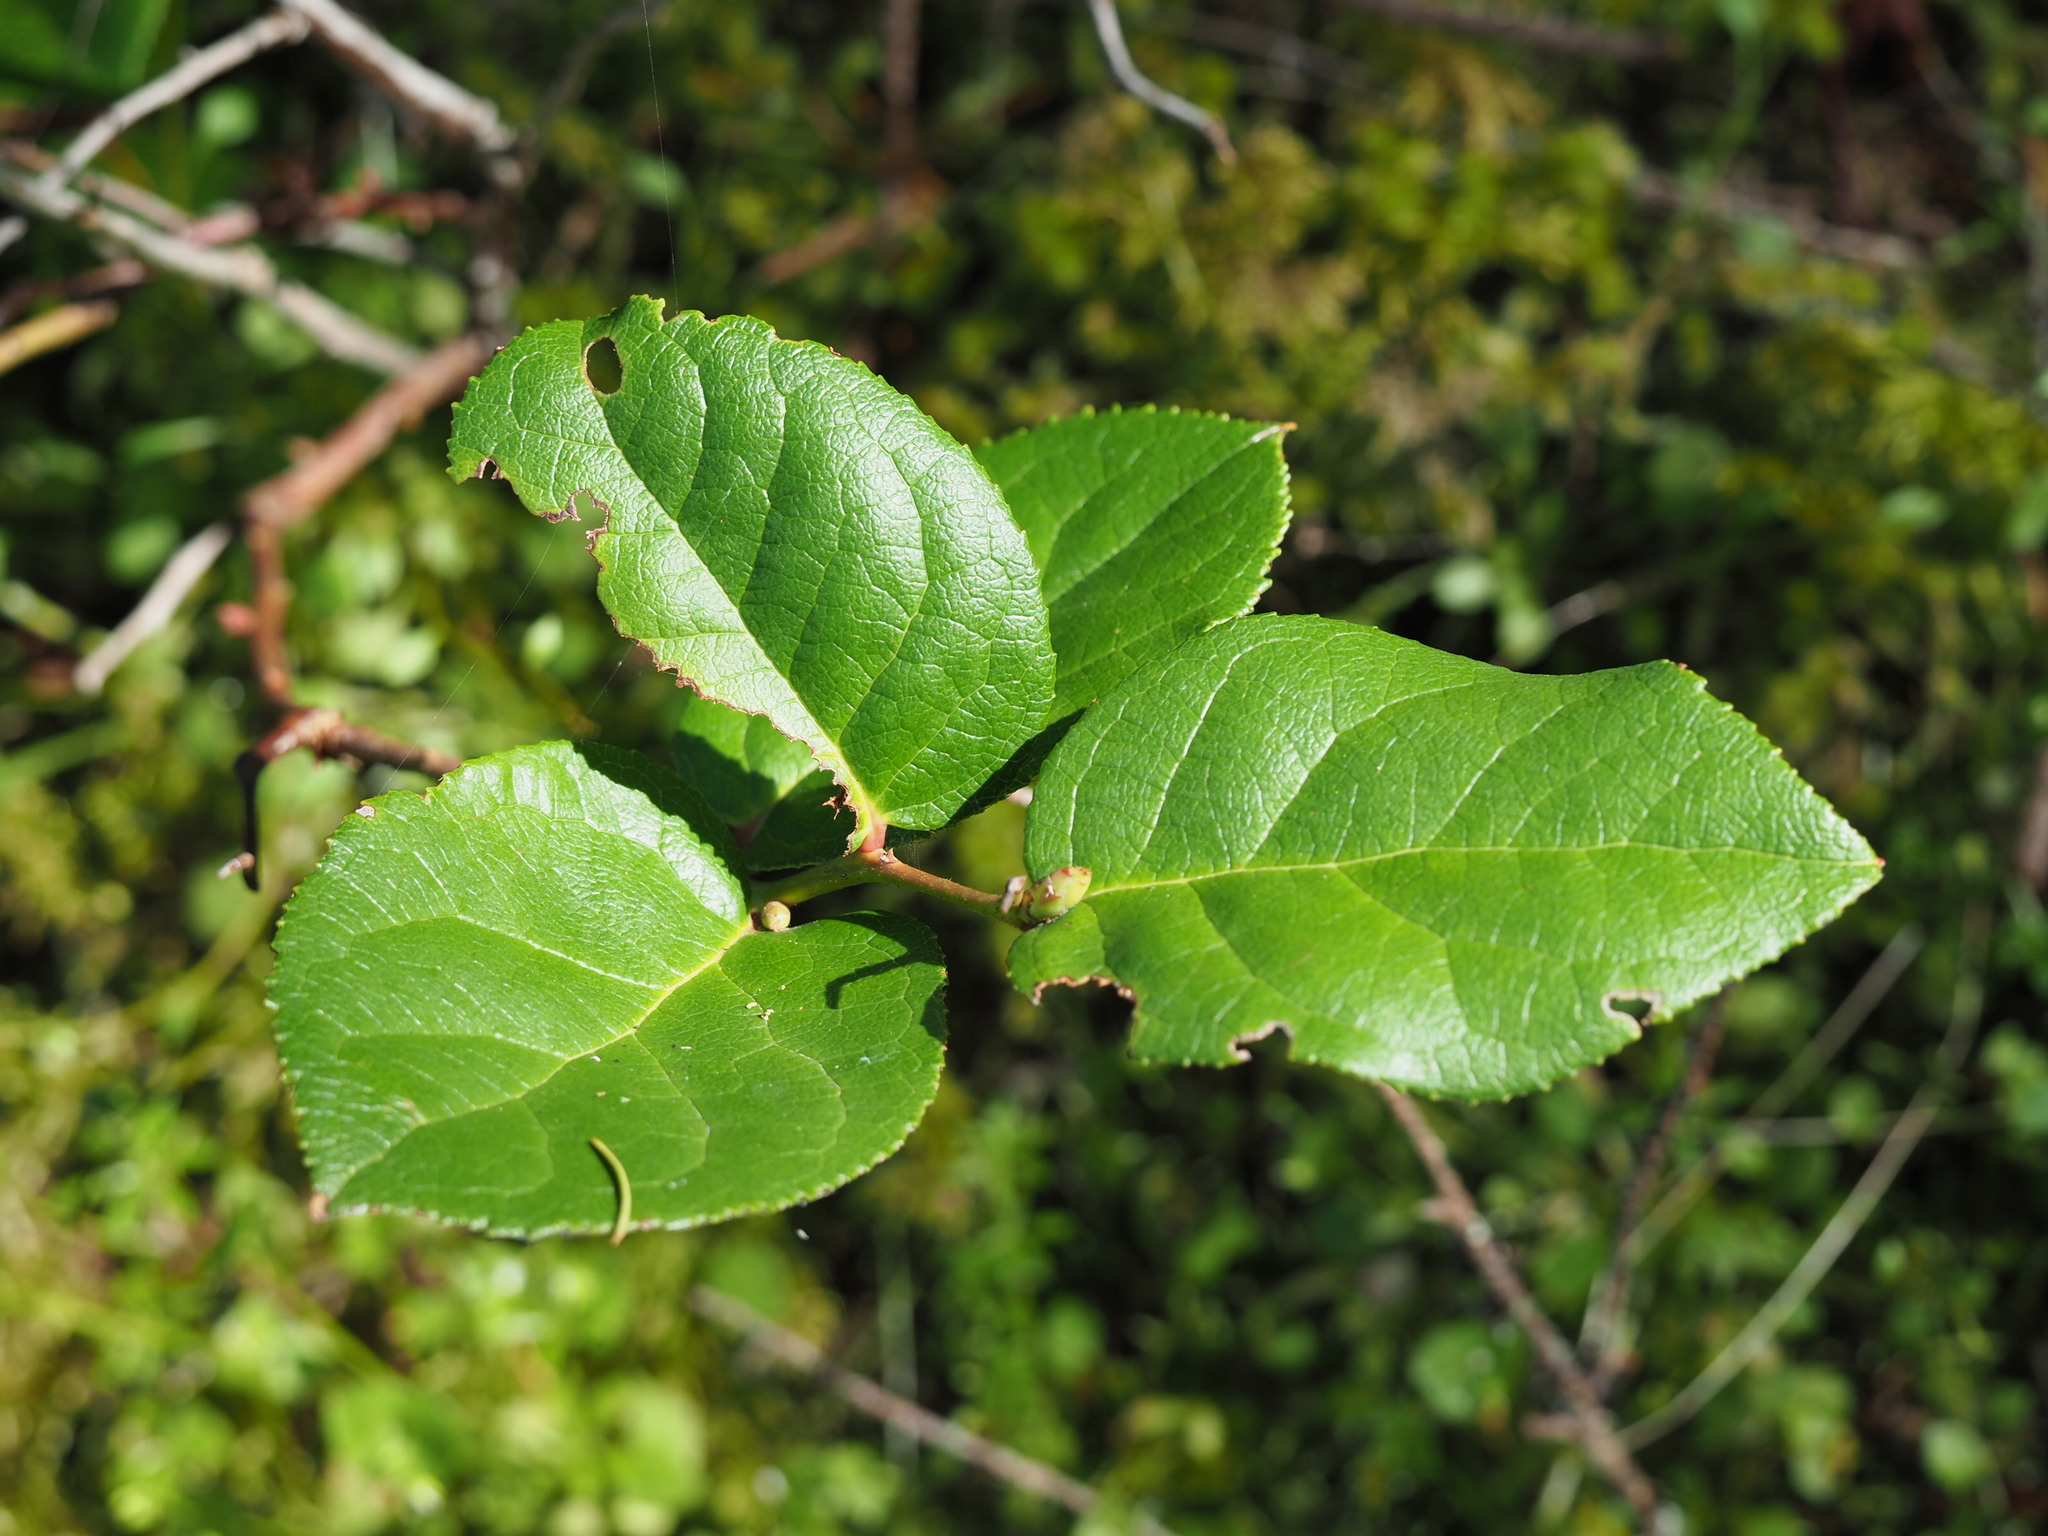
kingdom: Plantae
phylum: Tracheophyta
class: Magnoliopsida
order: Ericales
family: Ericaceae
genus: Gaultheria
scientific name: Gaultheria shallon
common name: Shallon
